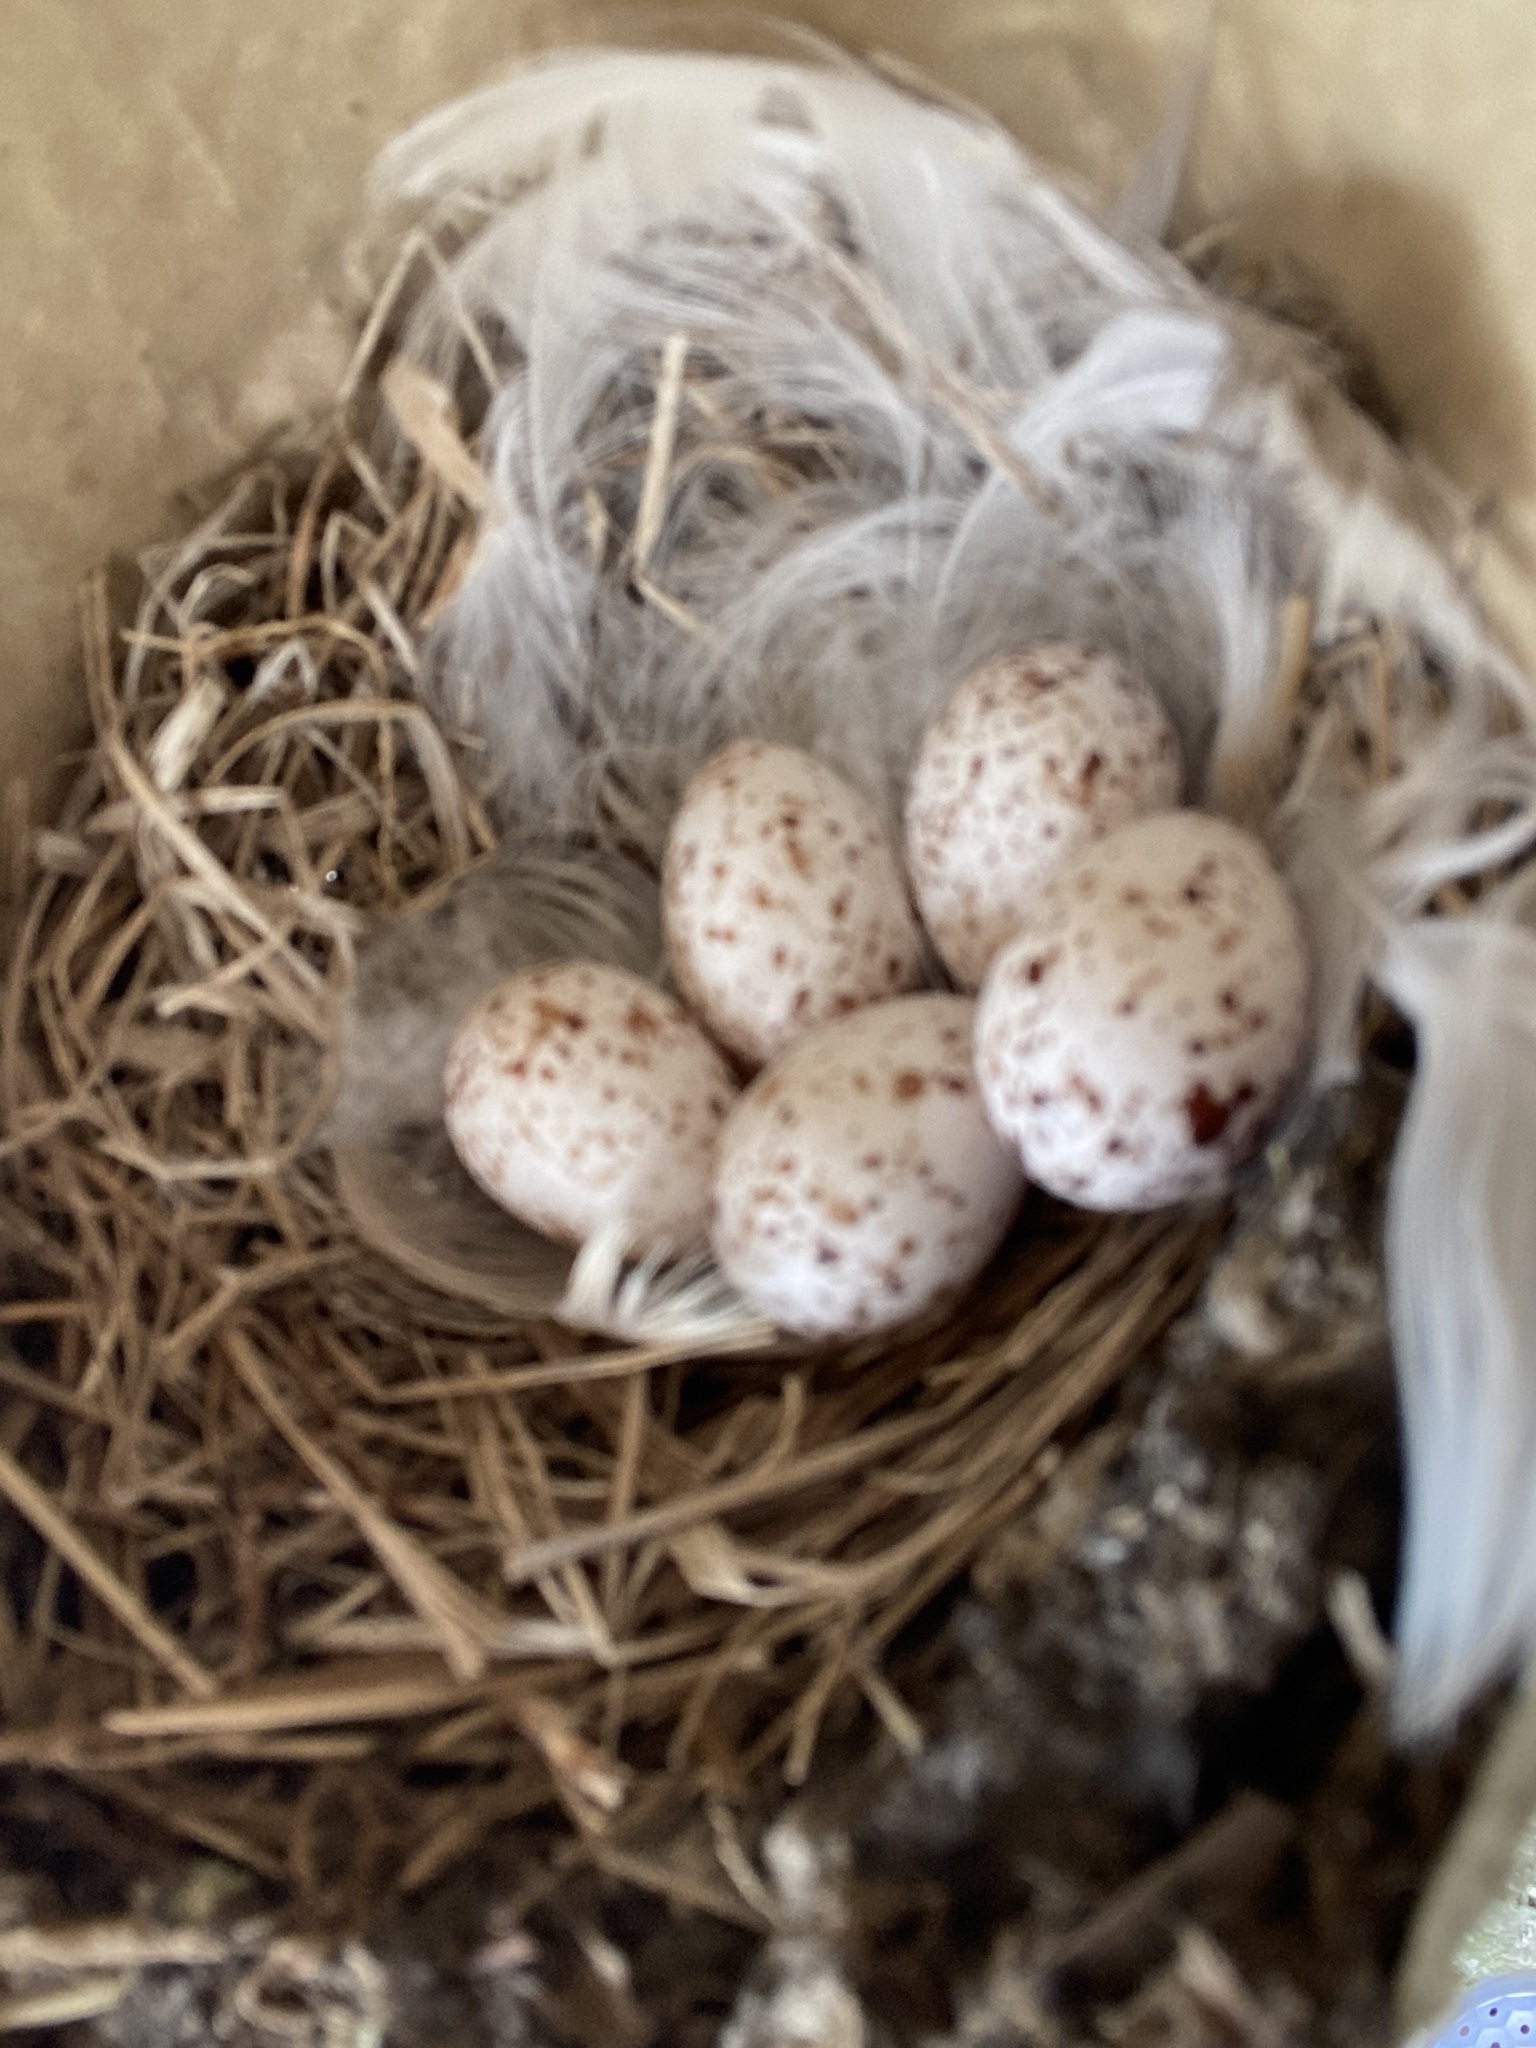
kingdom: Animalia
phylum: Chordata
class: Aves
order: Passeriformes
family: Hirundinidae
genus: Hirundo
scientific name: Hirundo rustica
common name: Barn swallow
